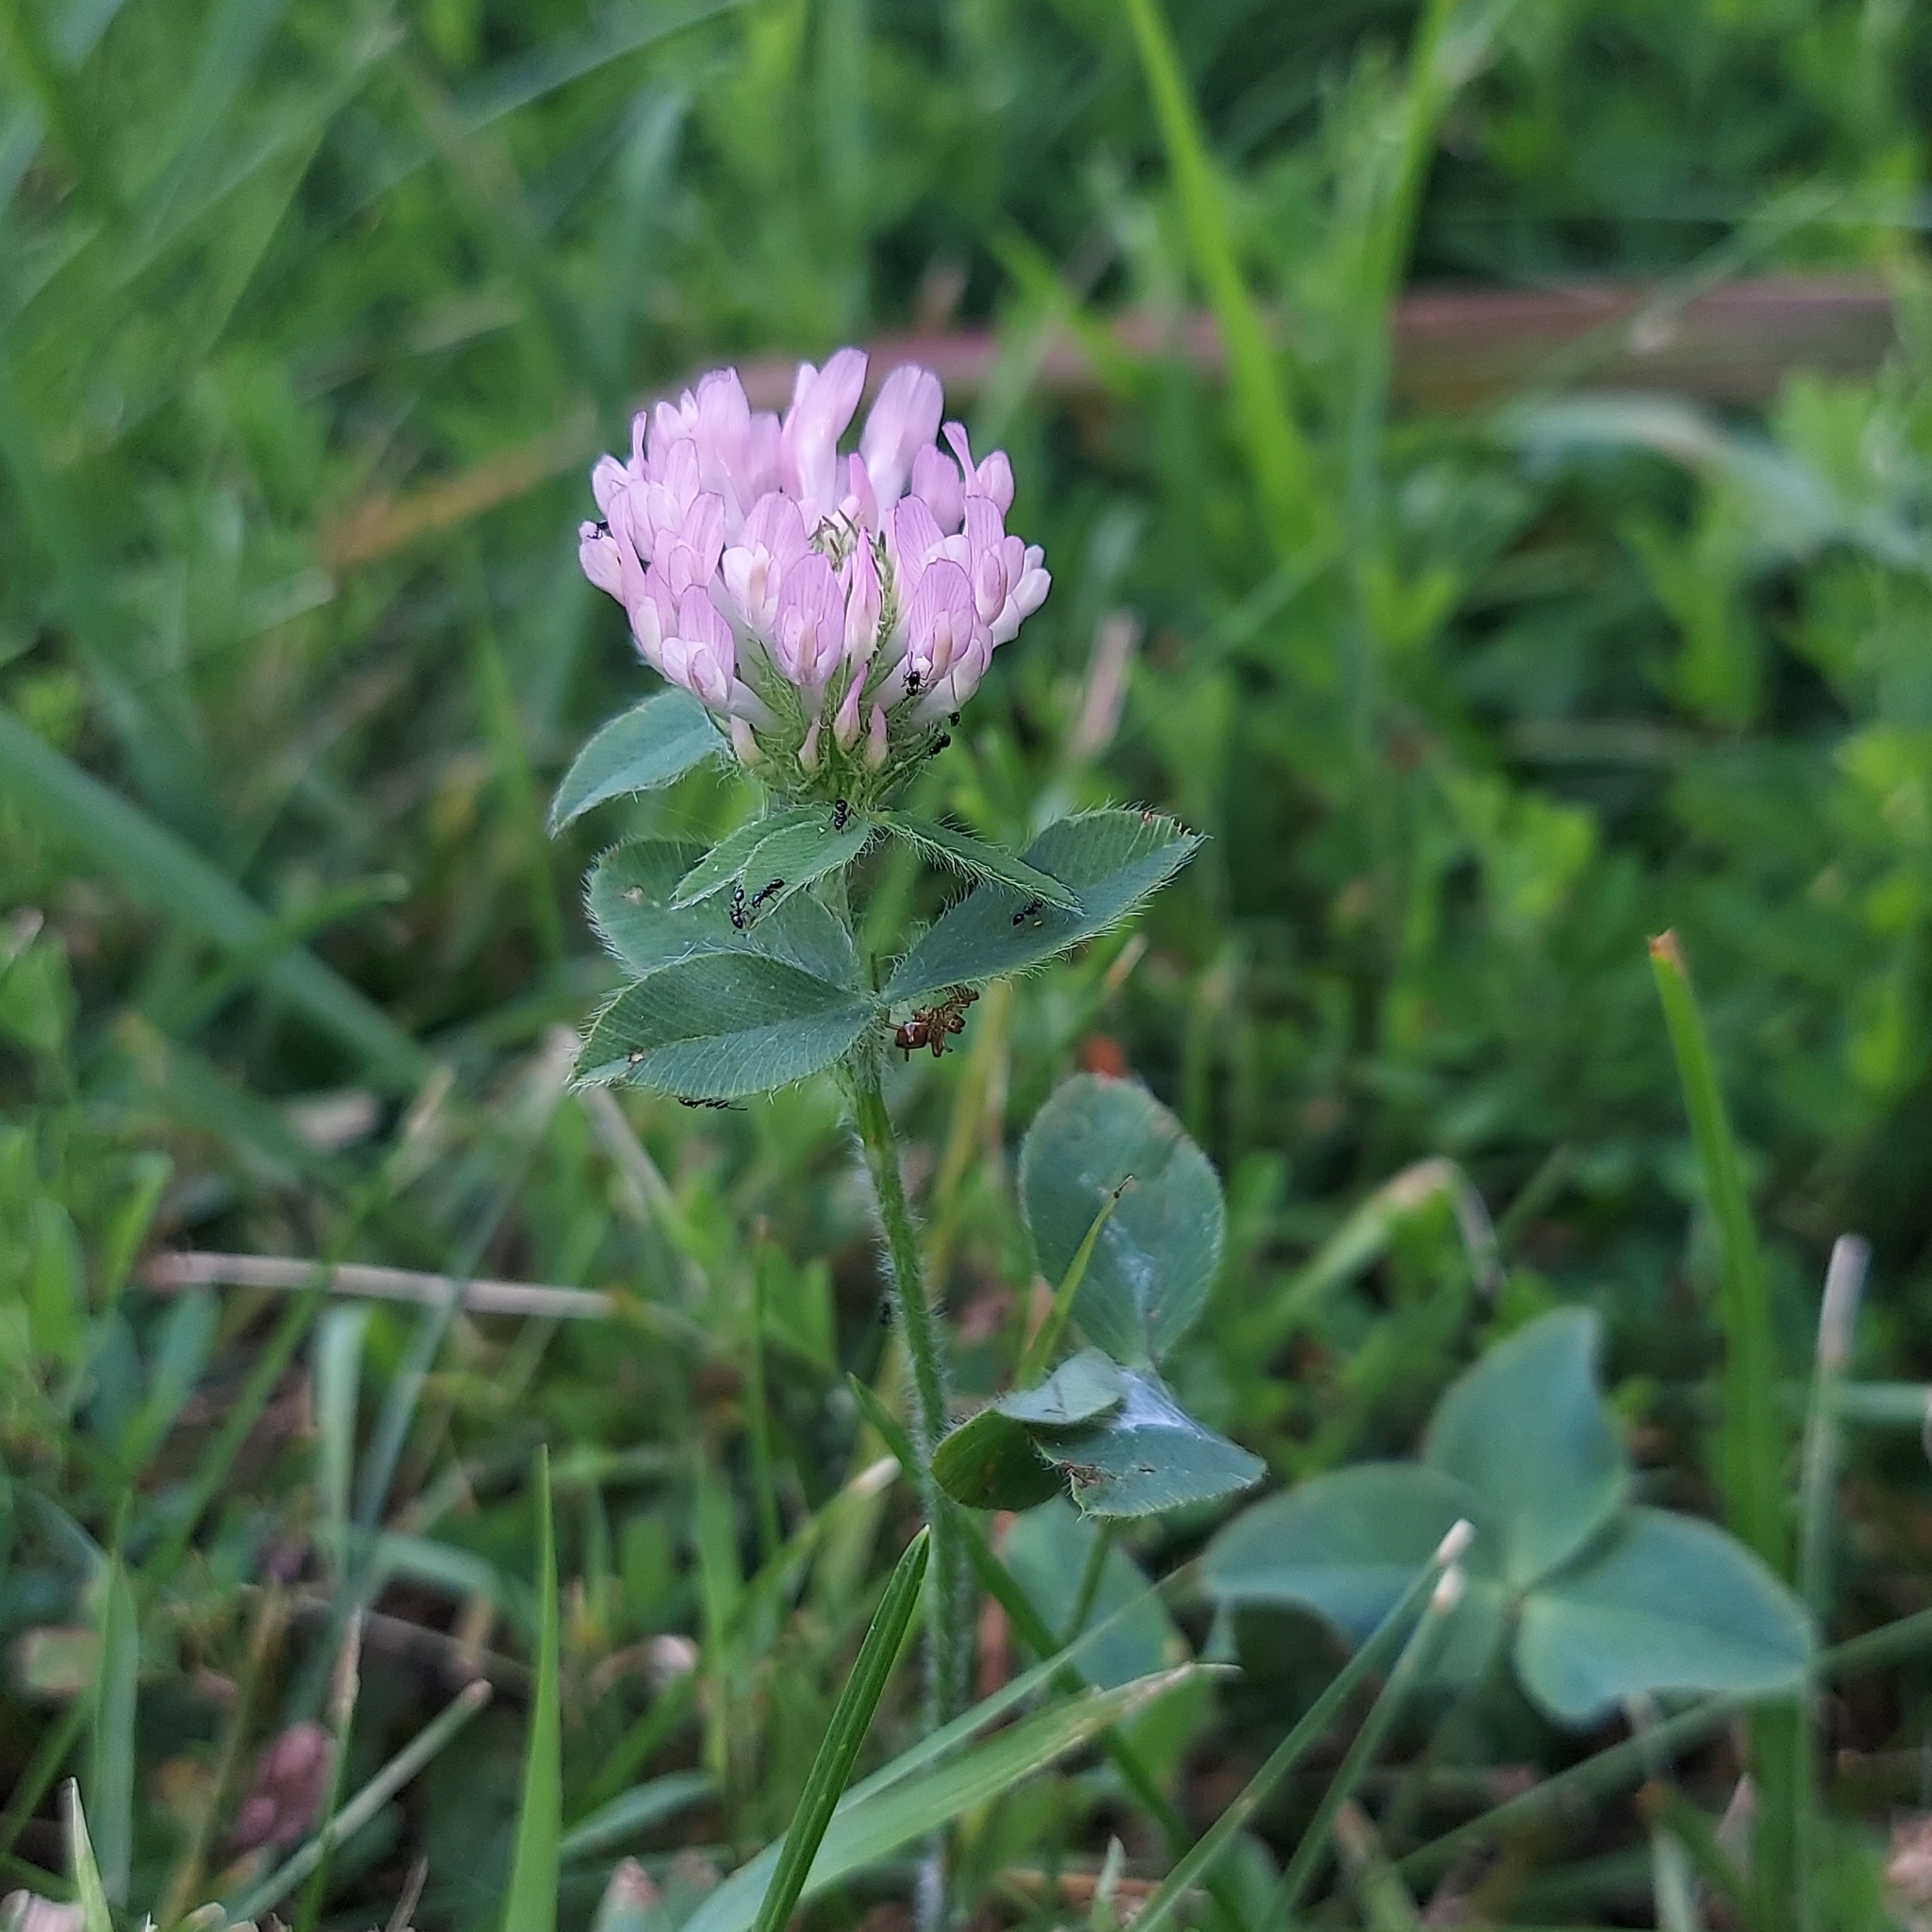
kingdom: Plantae
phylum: Tracheophyta
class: Magnoliopsida
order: Fabales
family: Fabaceae
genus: Trifolium
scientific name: Trifolium pratense
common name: Red clover
